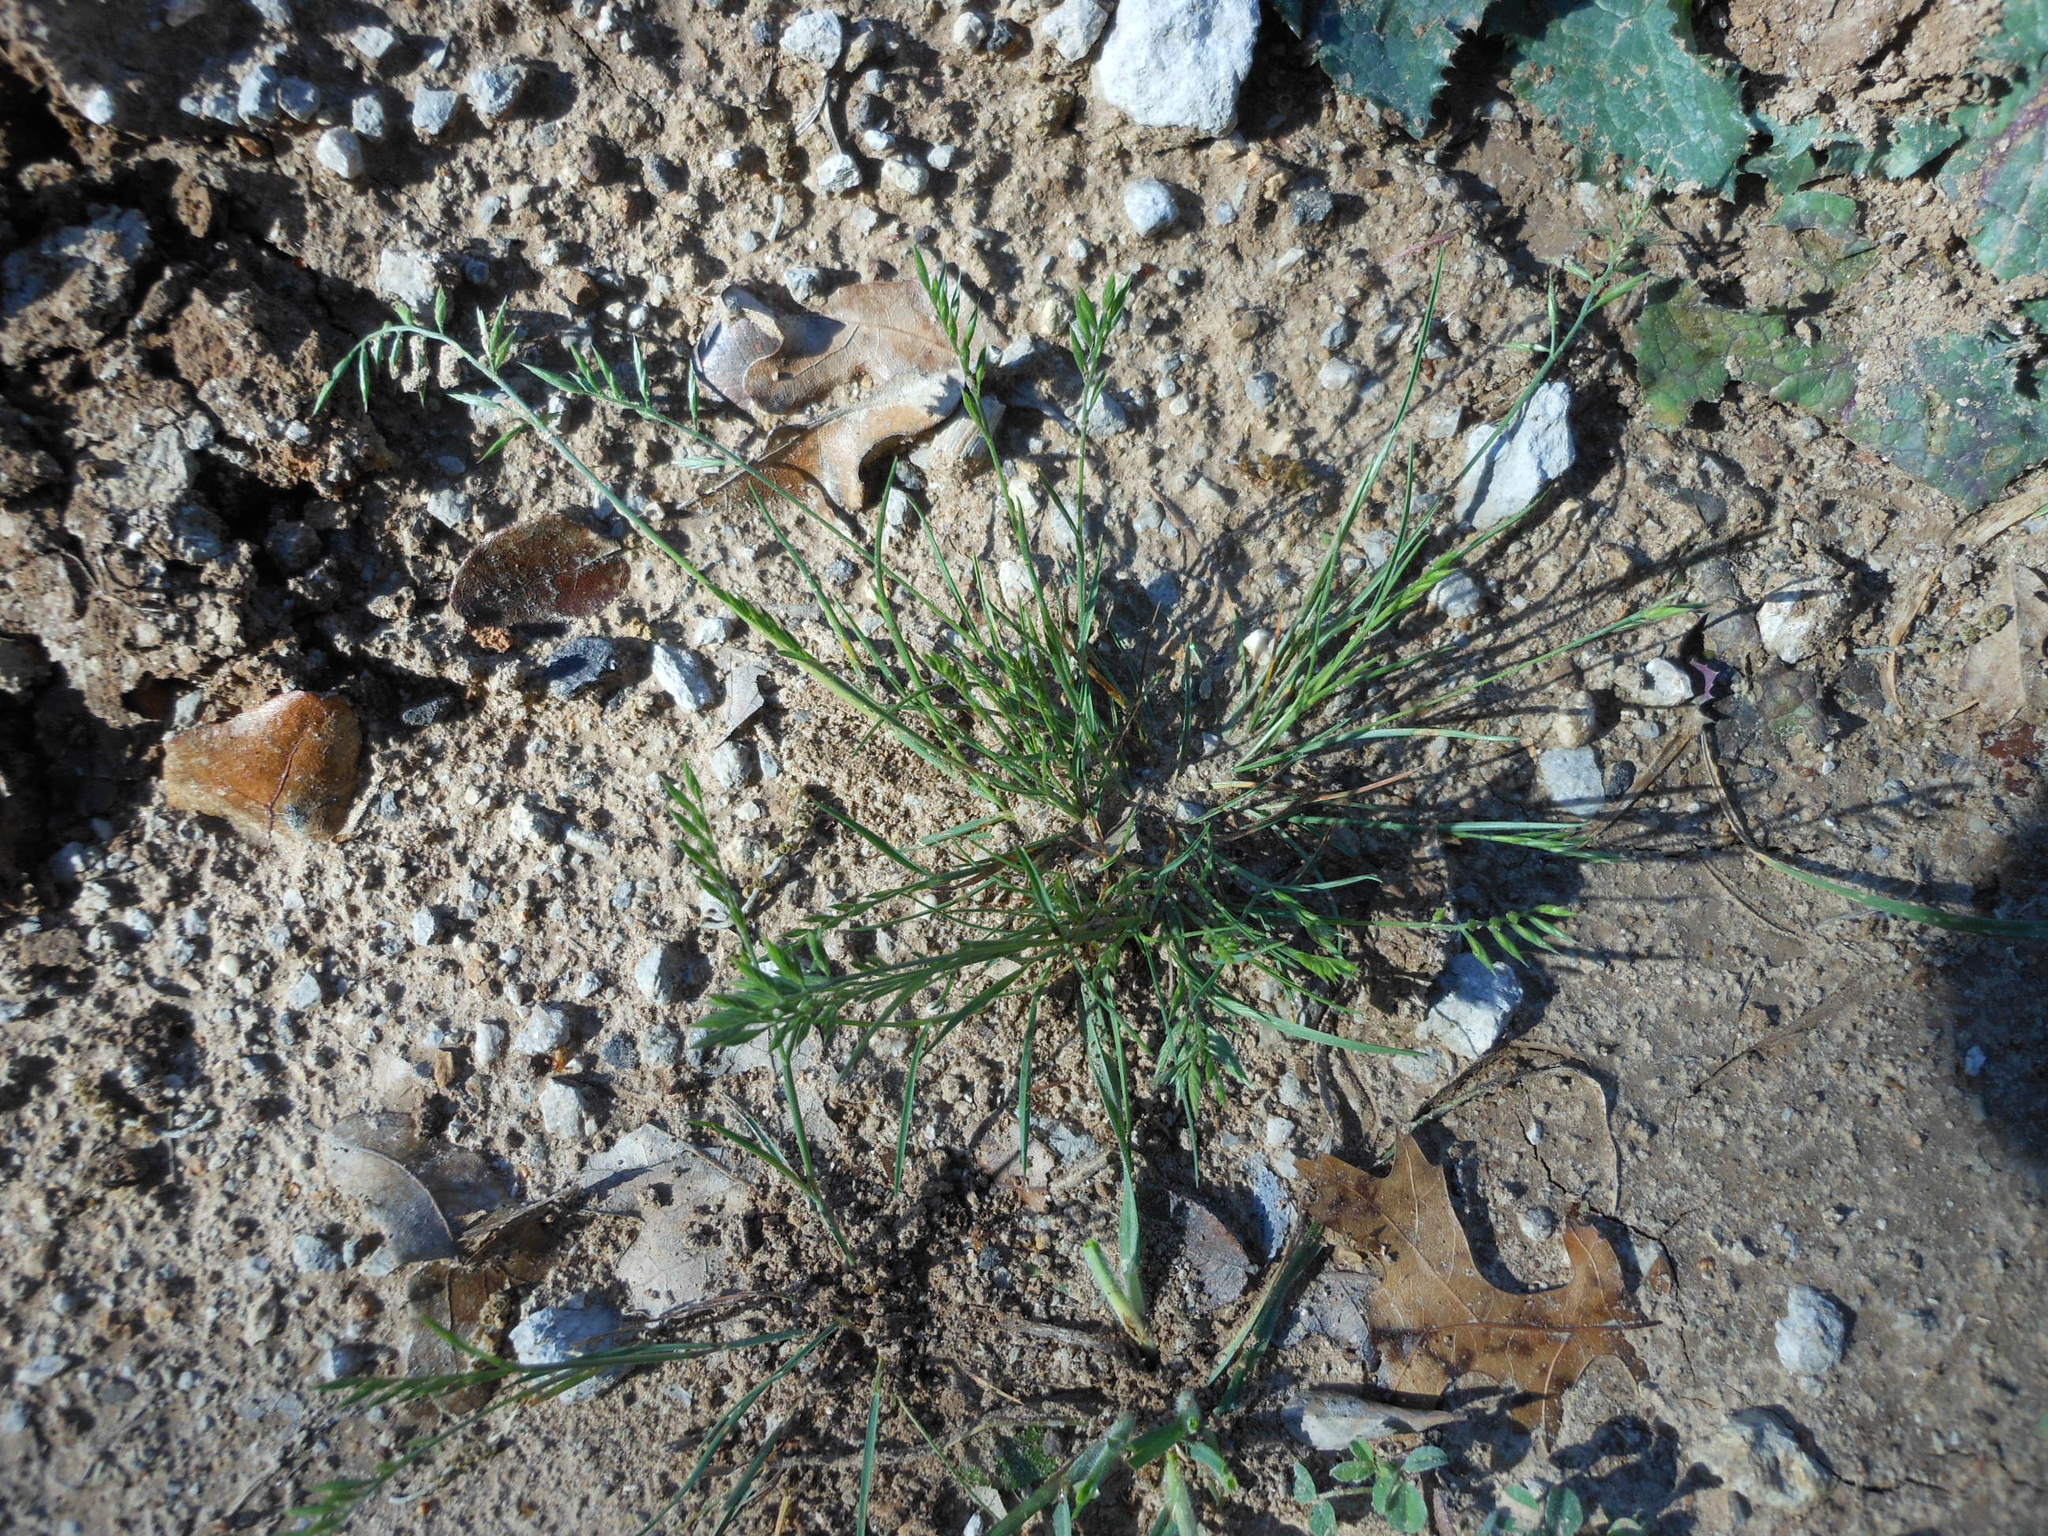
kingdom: Plantae
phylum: Tracheophyta
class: Liliopsida
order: Poales
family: Poaceae
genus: Festuca
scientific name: Festuca octoflora
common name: Sixweeks grass
